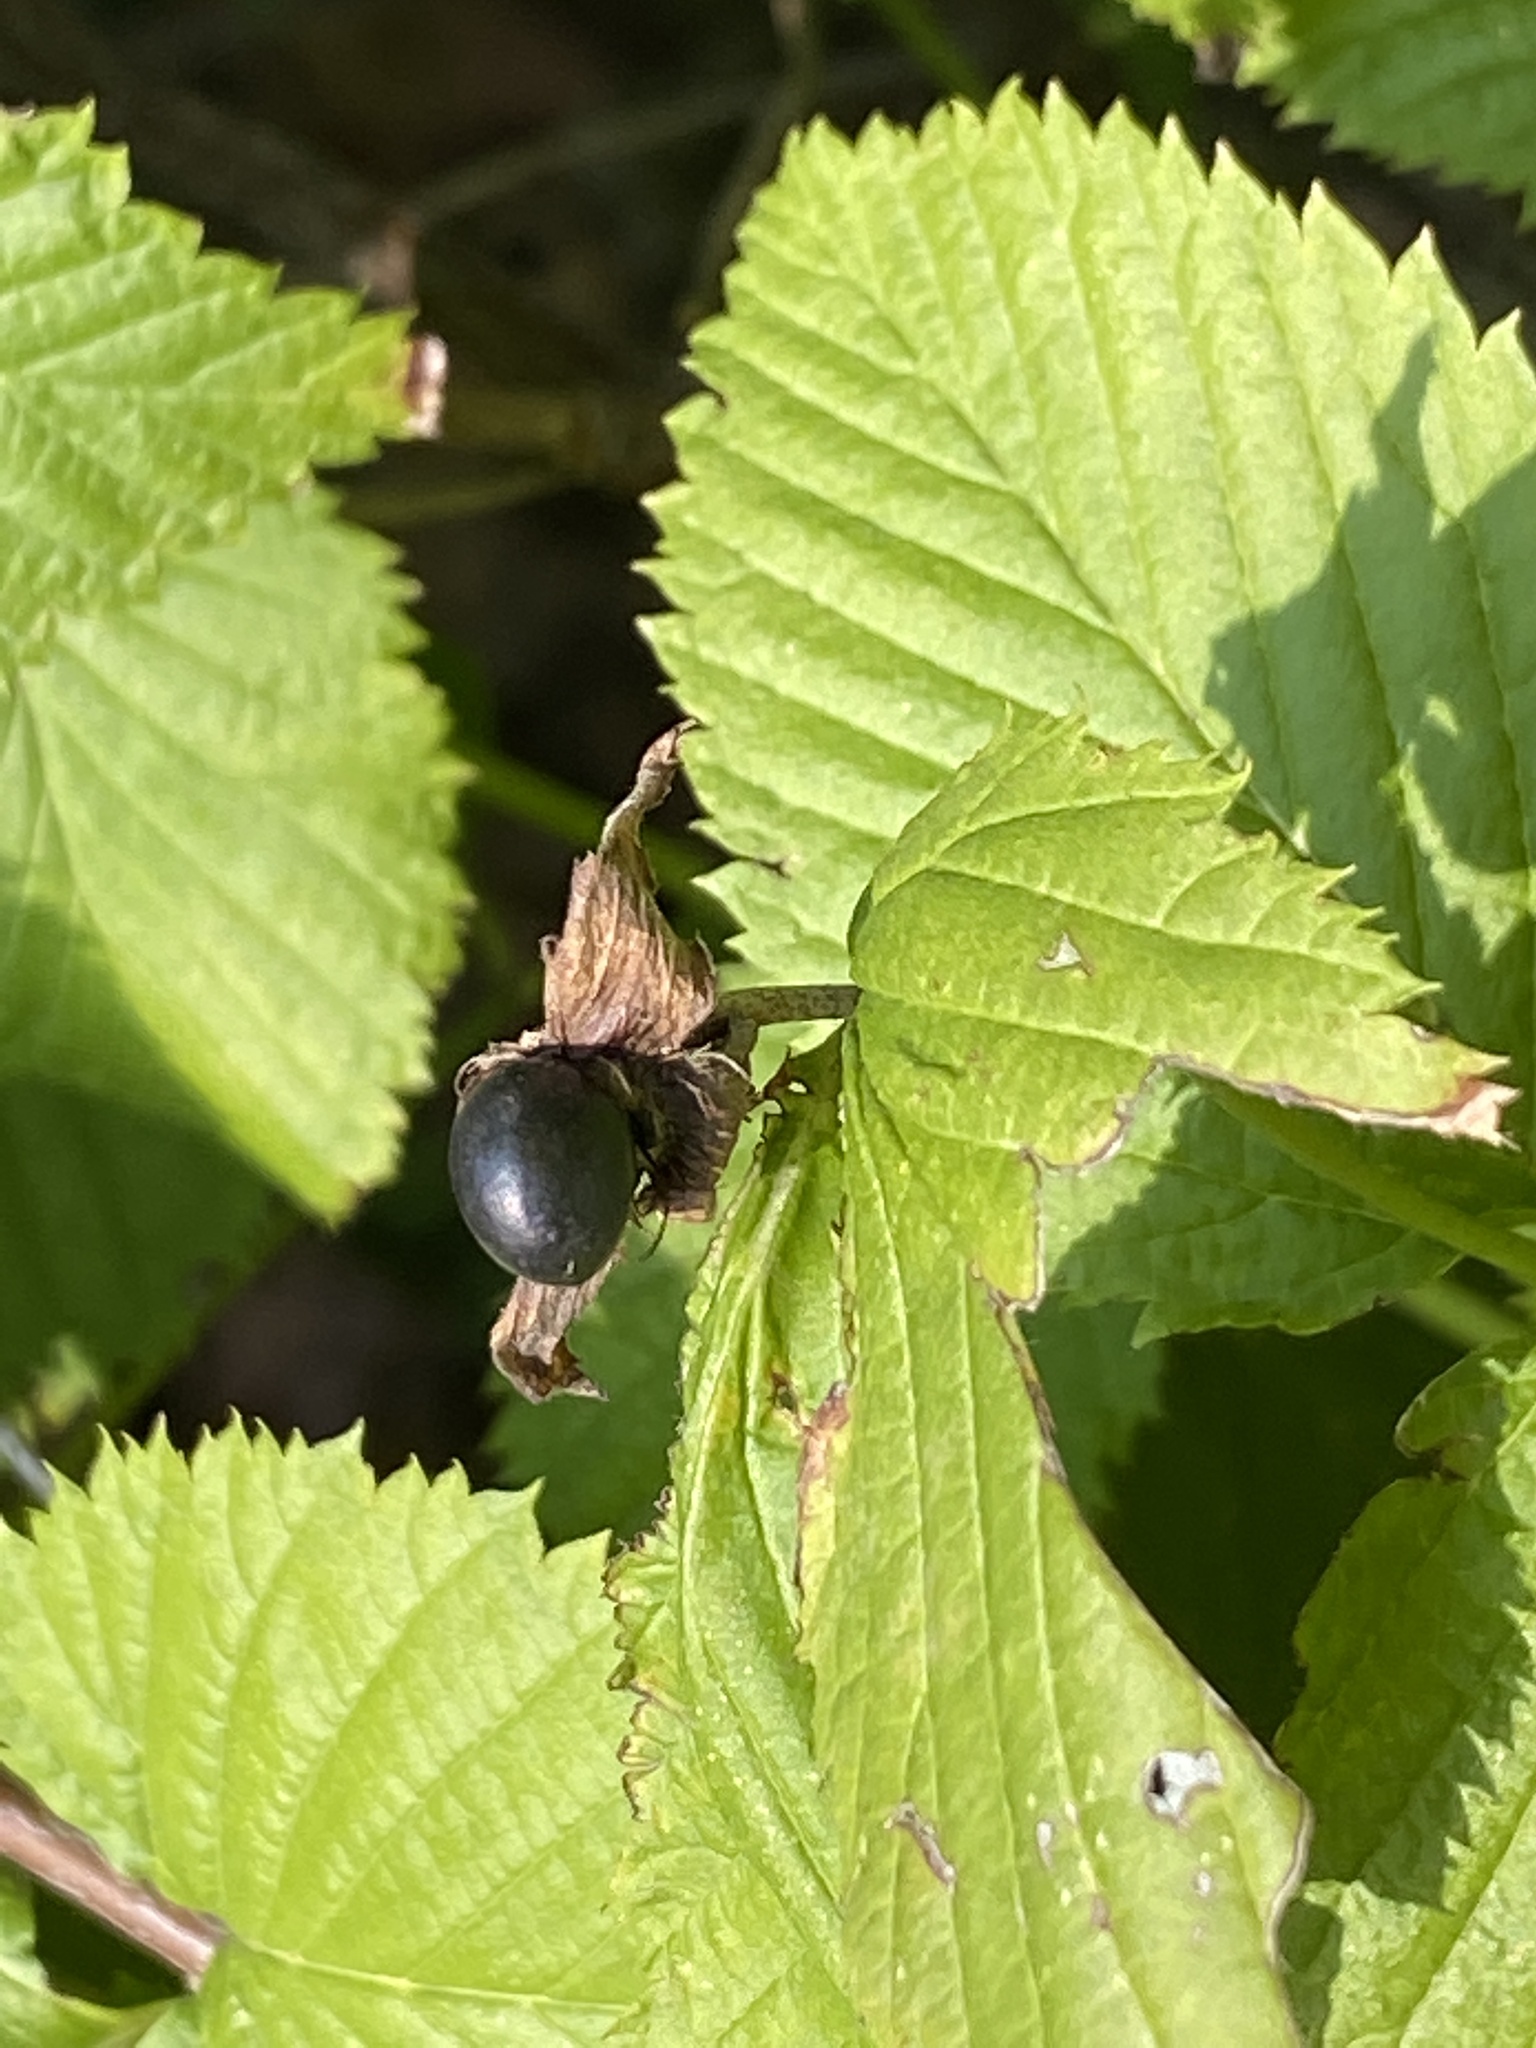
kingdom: Plantae
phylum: Tracheophyta
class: Magnoliopsida
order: Rosales
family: Rosaceae
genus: Rhodotypos
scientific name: Rhodotypos scandens
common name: Jetbead
